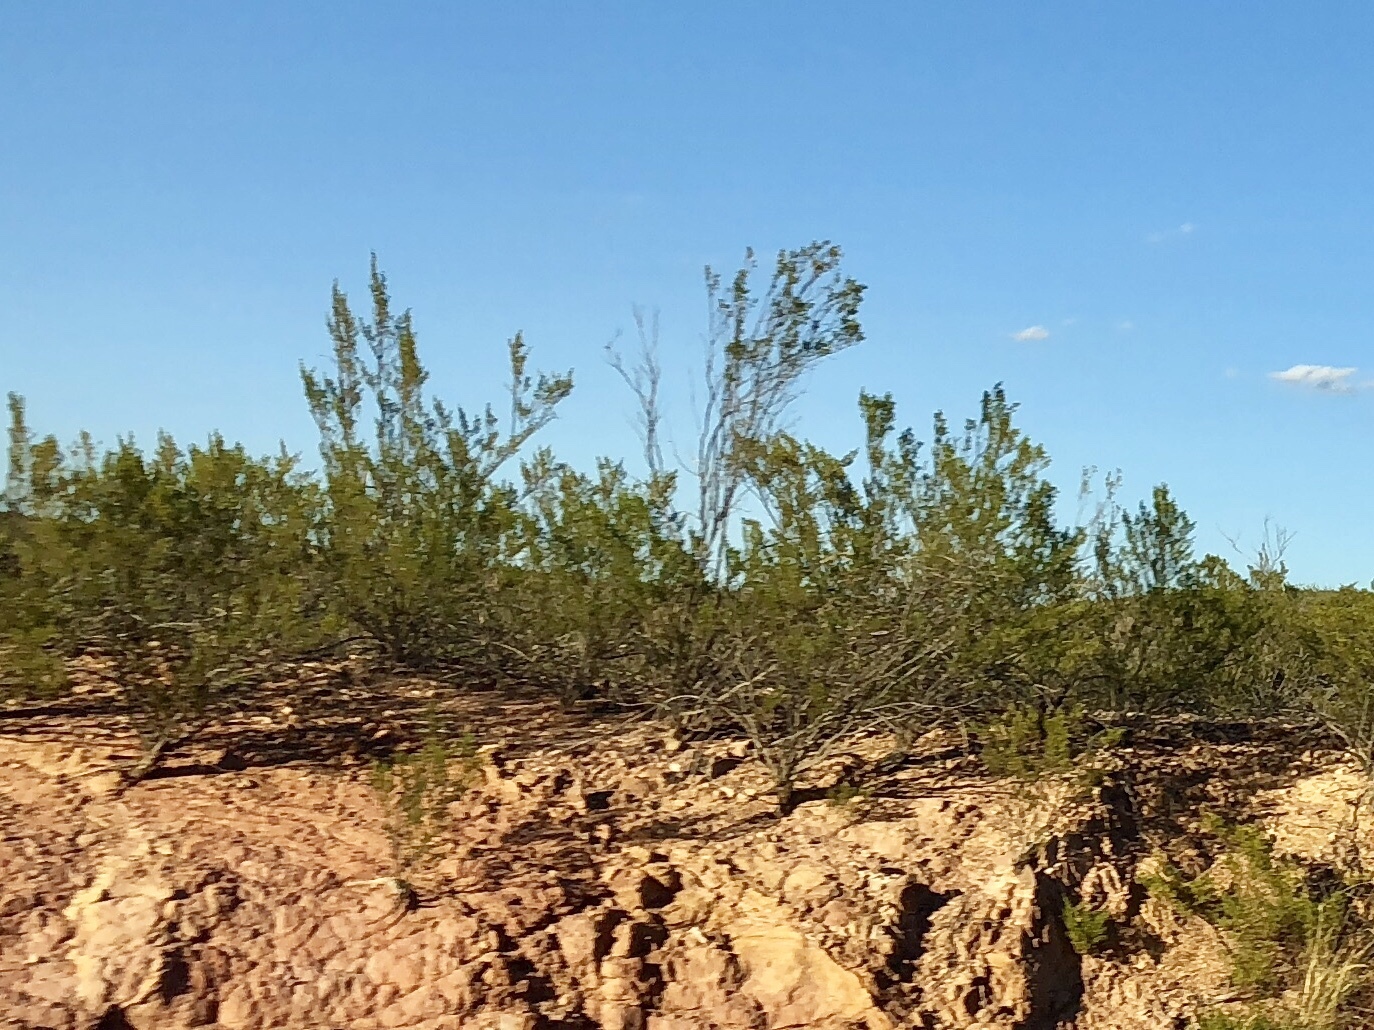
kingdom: Plantae
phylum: Tracheophyta
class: Magnoliopsida
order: Zygophyllales
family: Zygophyllaceae
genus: Larrea
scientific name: Larrea tridentata
